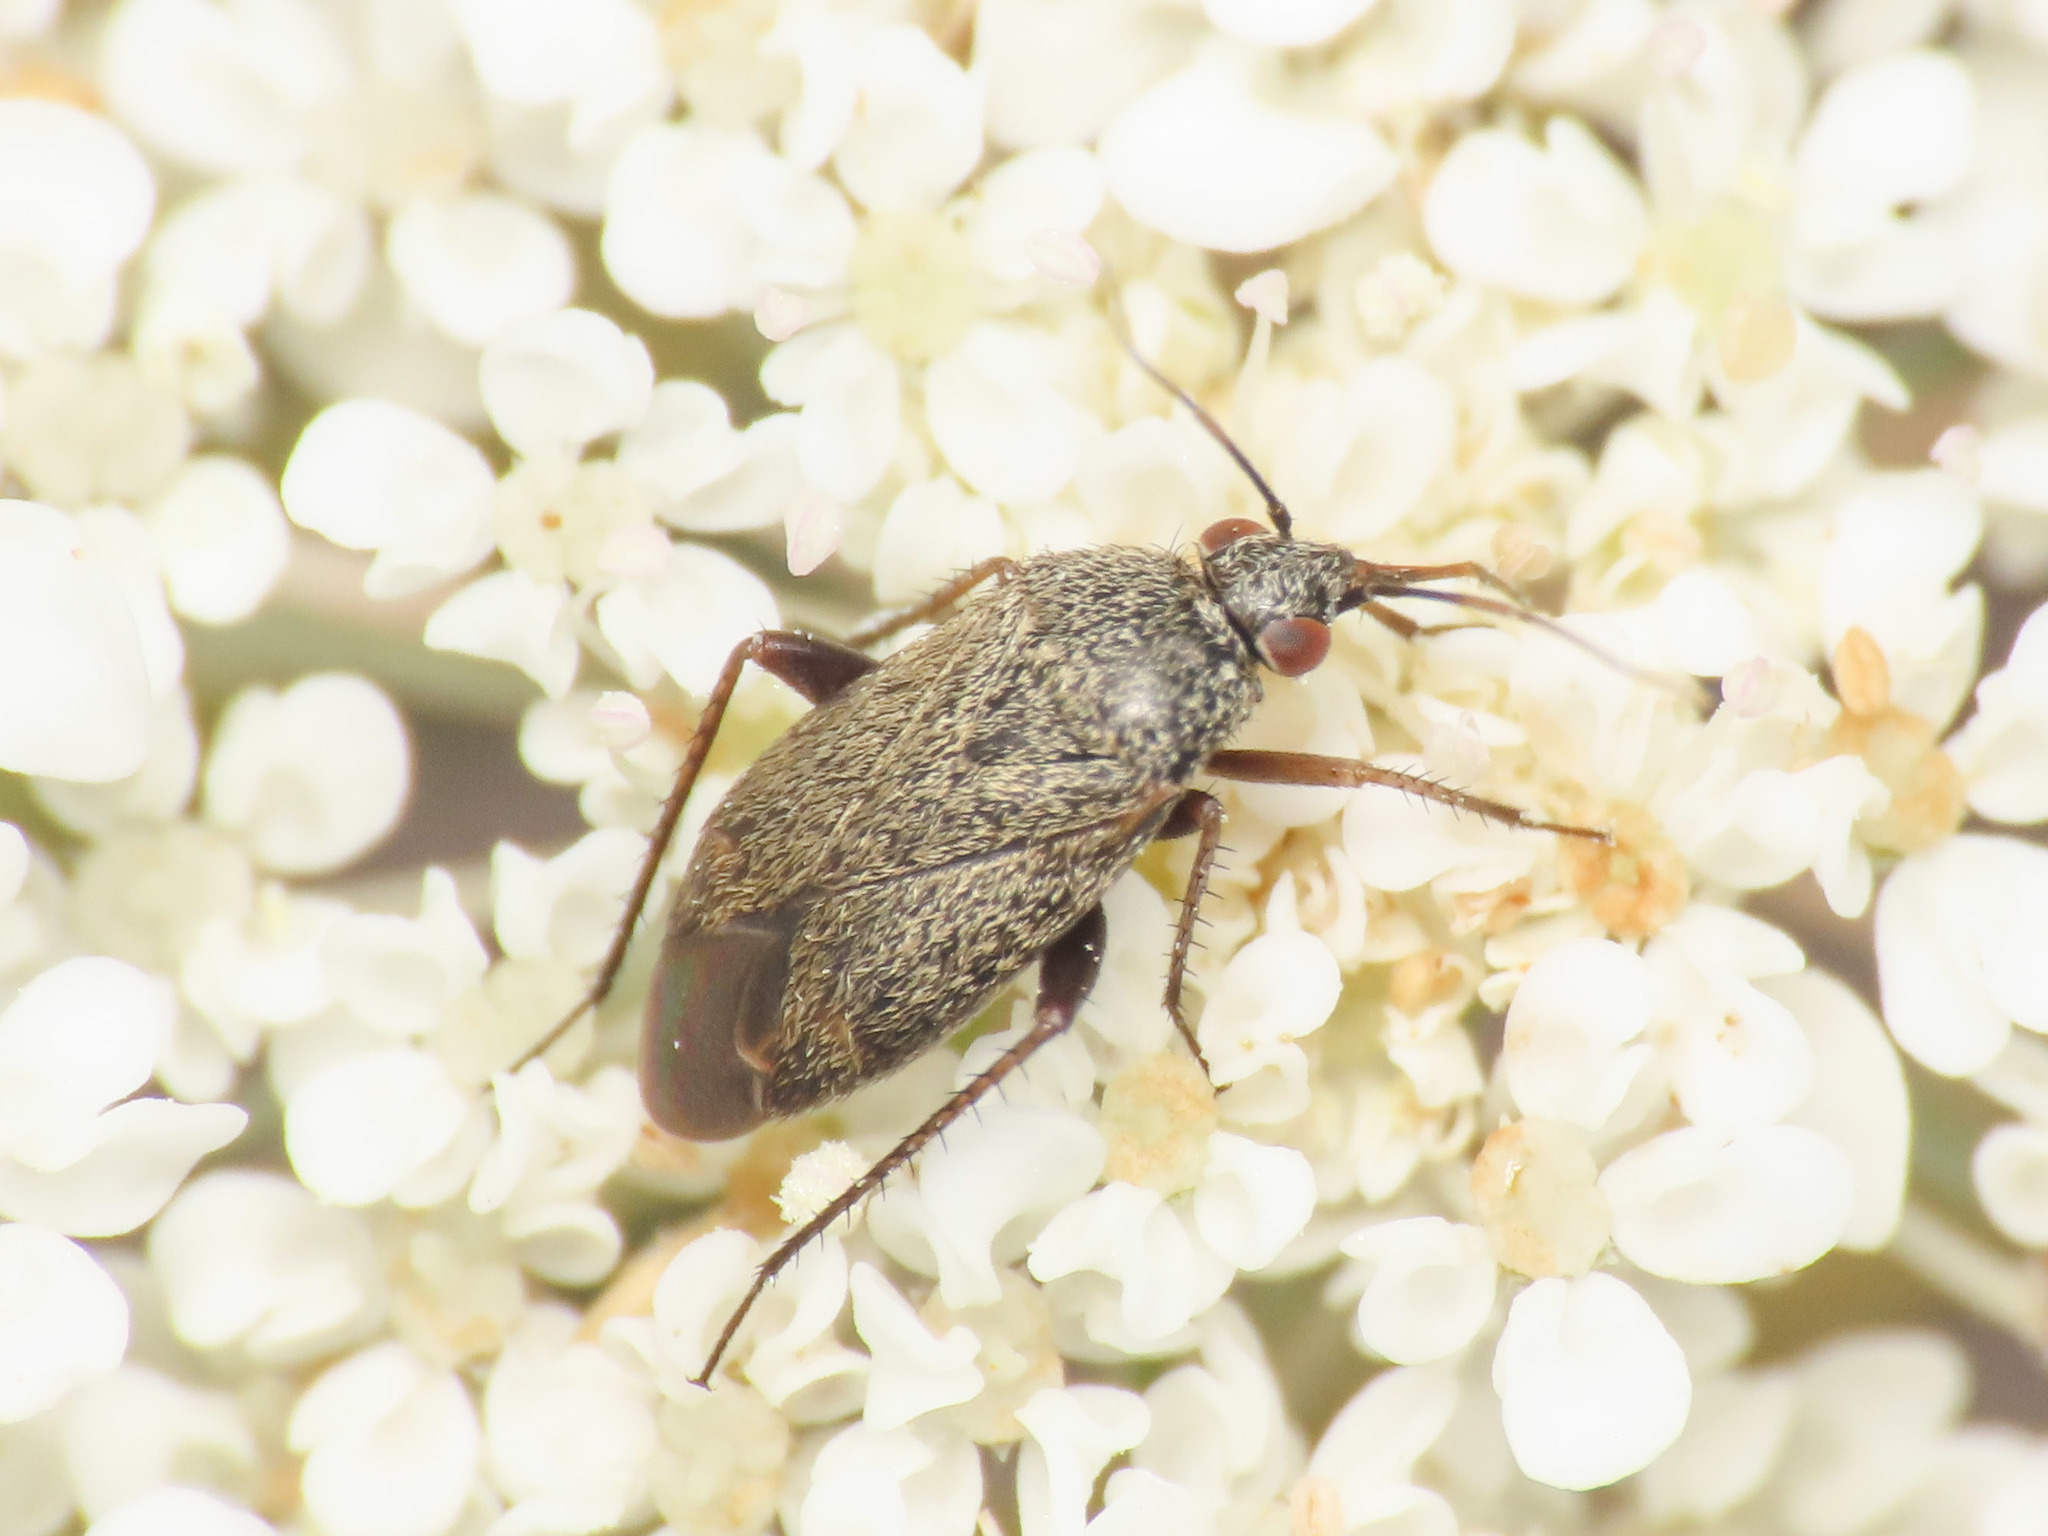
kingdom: Animalia
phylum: Arthropoda
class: Insecta
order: Hemiptera
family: Miridae
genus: Lepidargyrus
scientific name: Lepidargyrus ancorifer
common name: Plant bug
